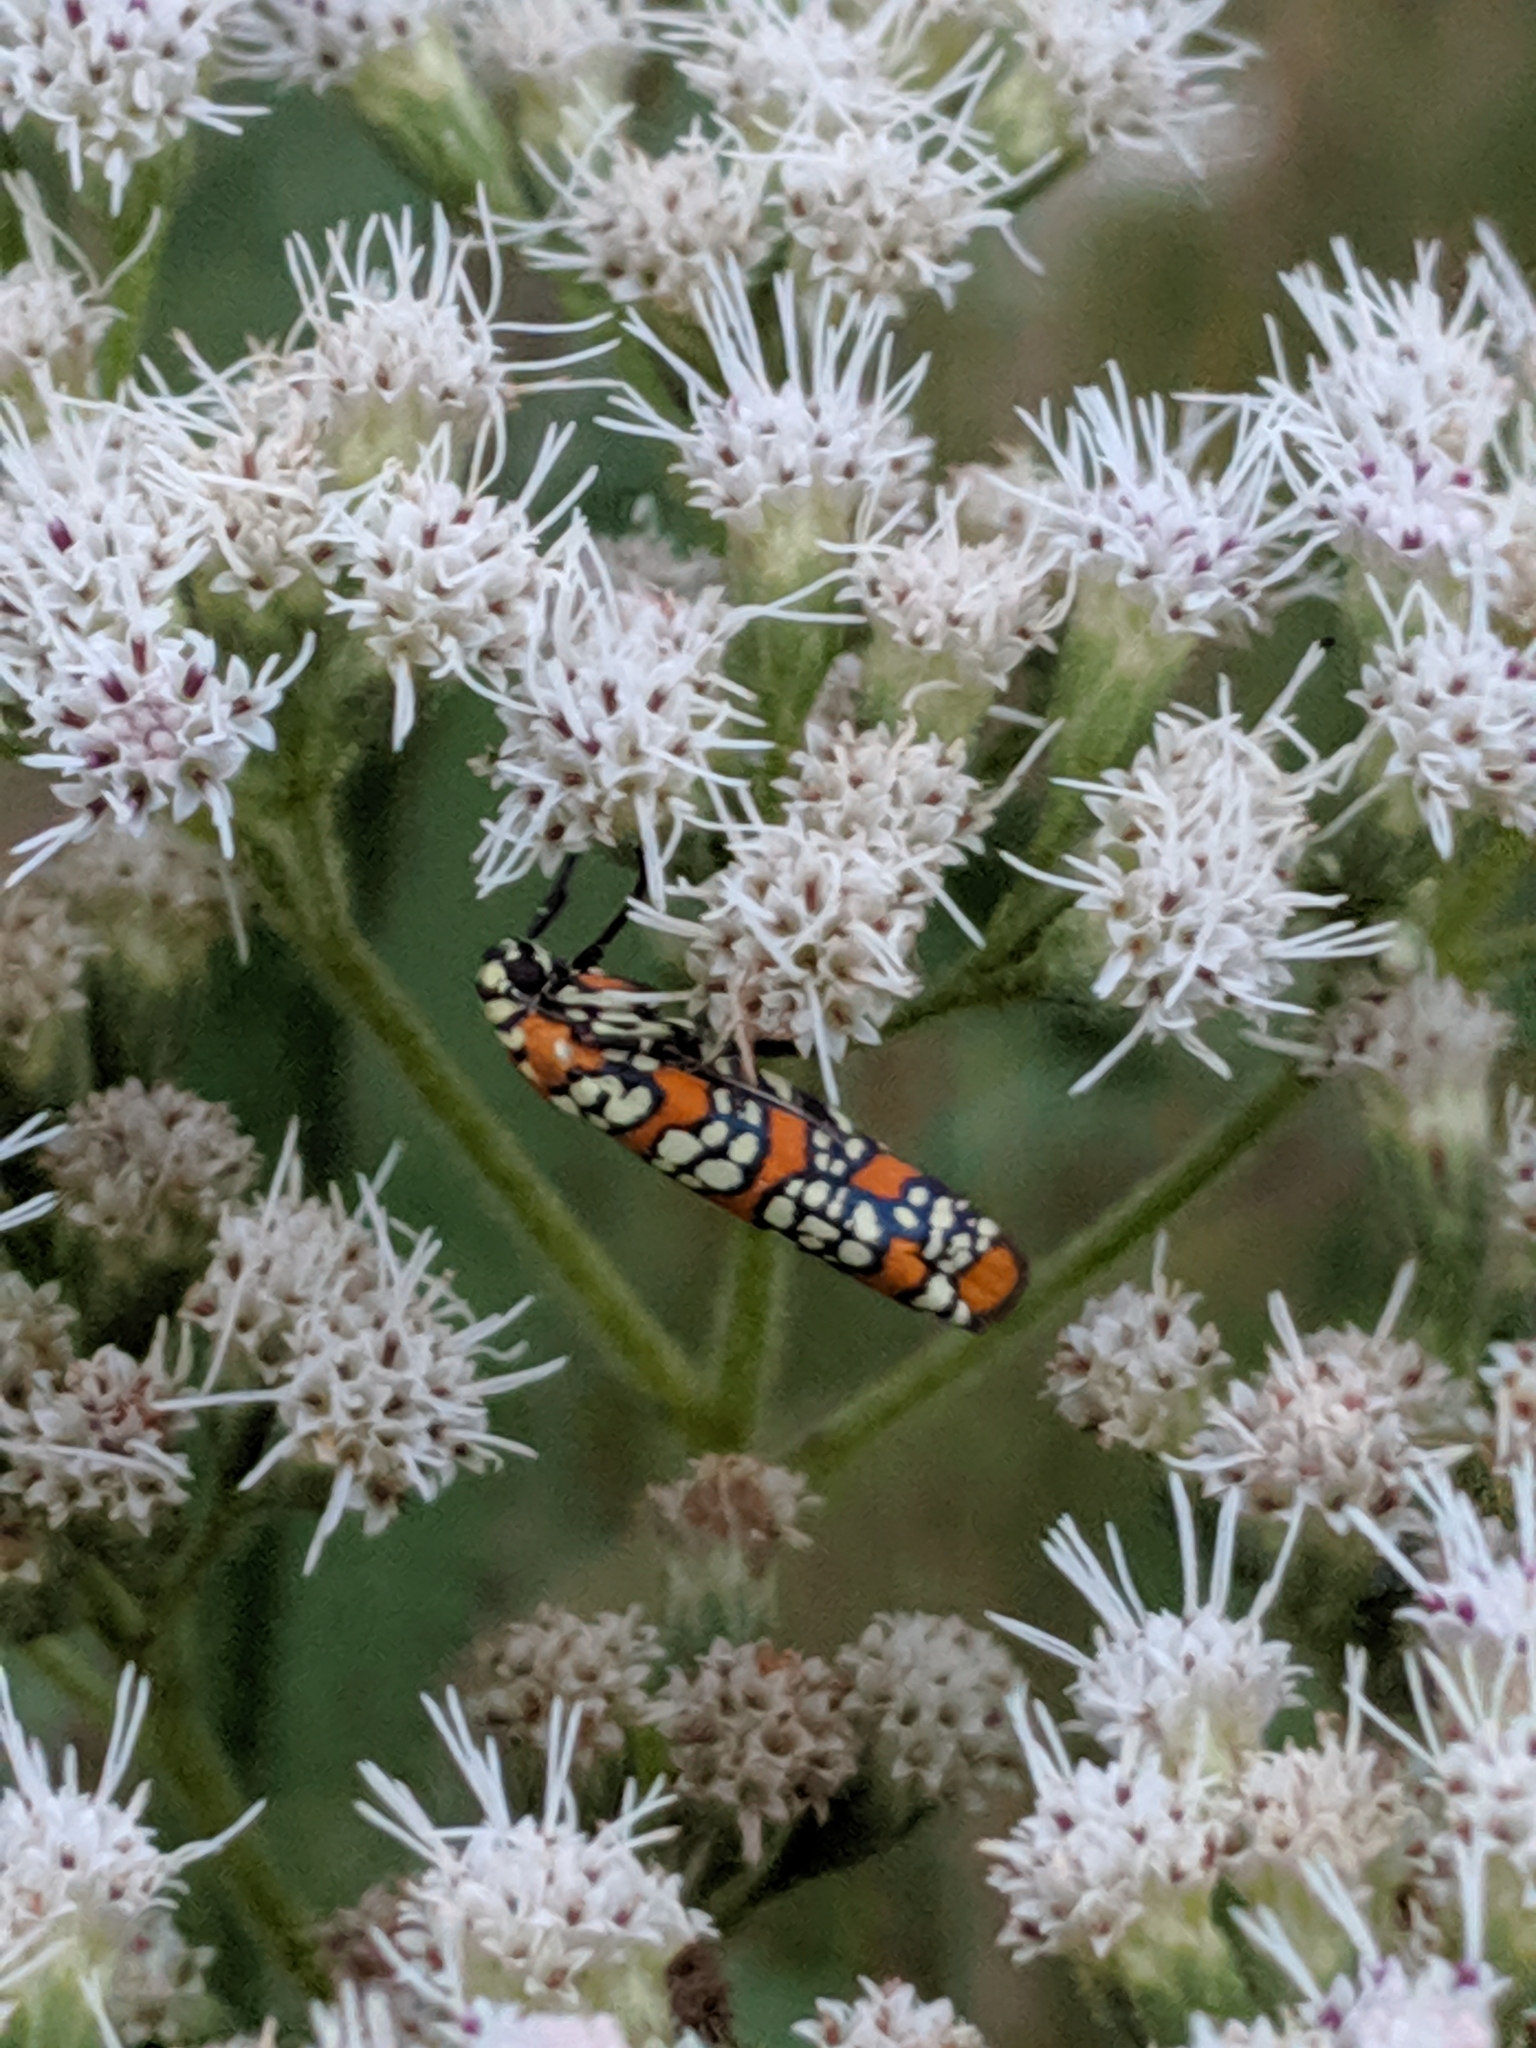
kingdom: Animalia
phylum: Arthropoda
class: Insecta
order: Lepidoptera
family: Attevidae
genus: Atteva
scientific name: Atteva punctella
